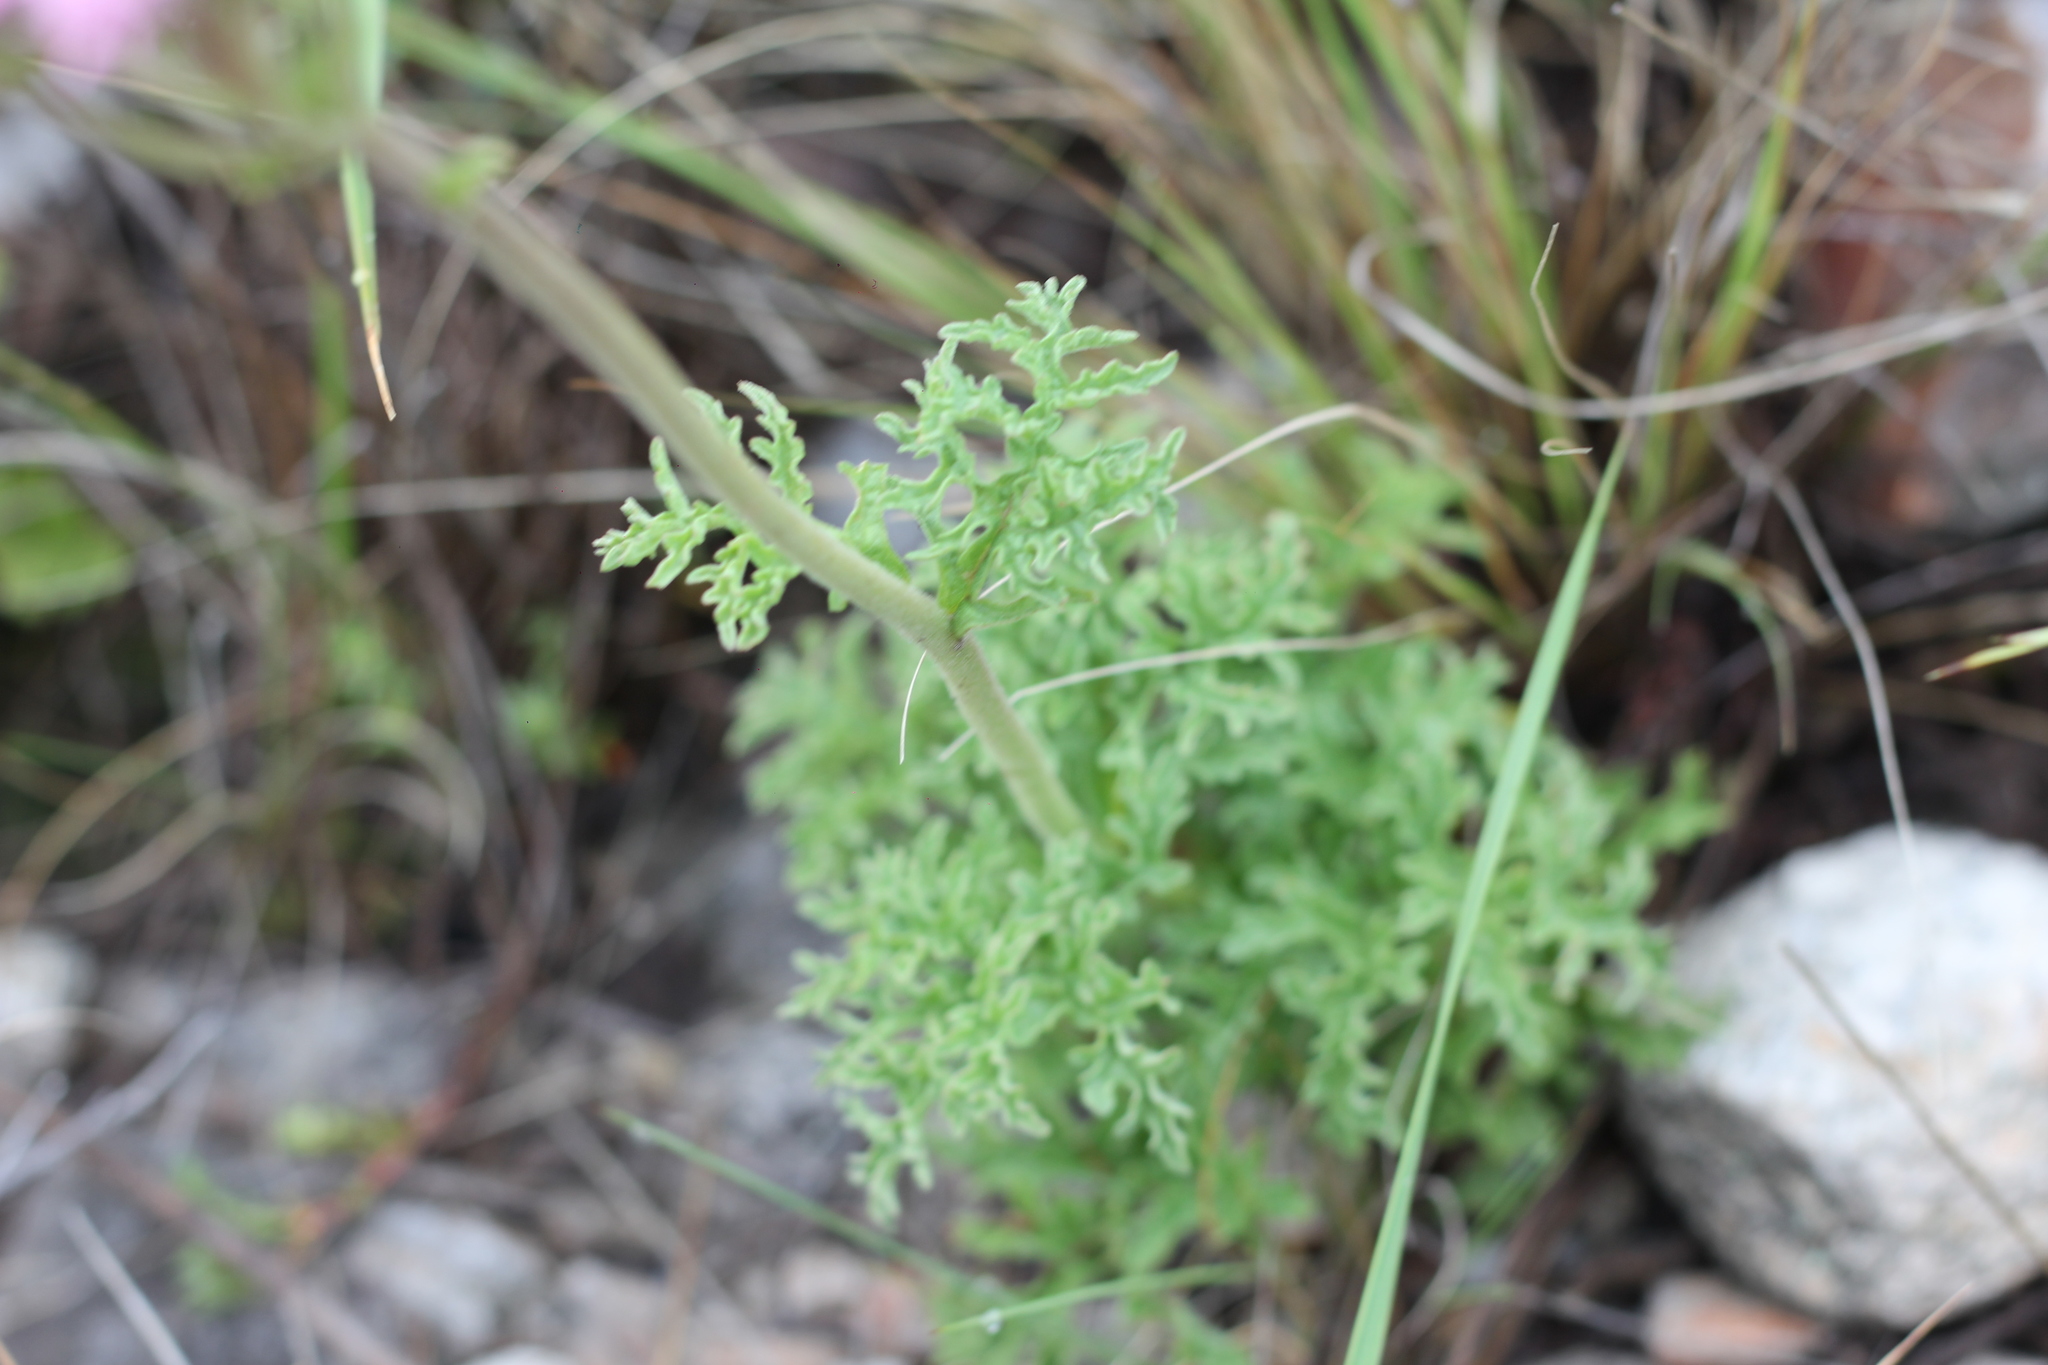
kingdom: Plantae
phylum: Tracheophyta
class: Magnoliopsida
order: Asterales
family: Asteraceae
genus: Gyptis
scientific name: Gyptis tanacetifolia
